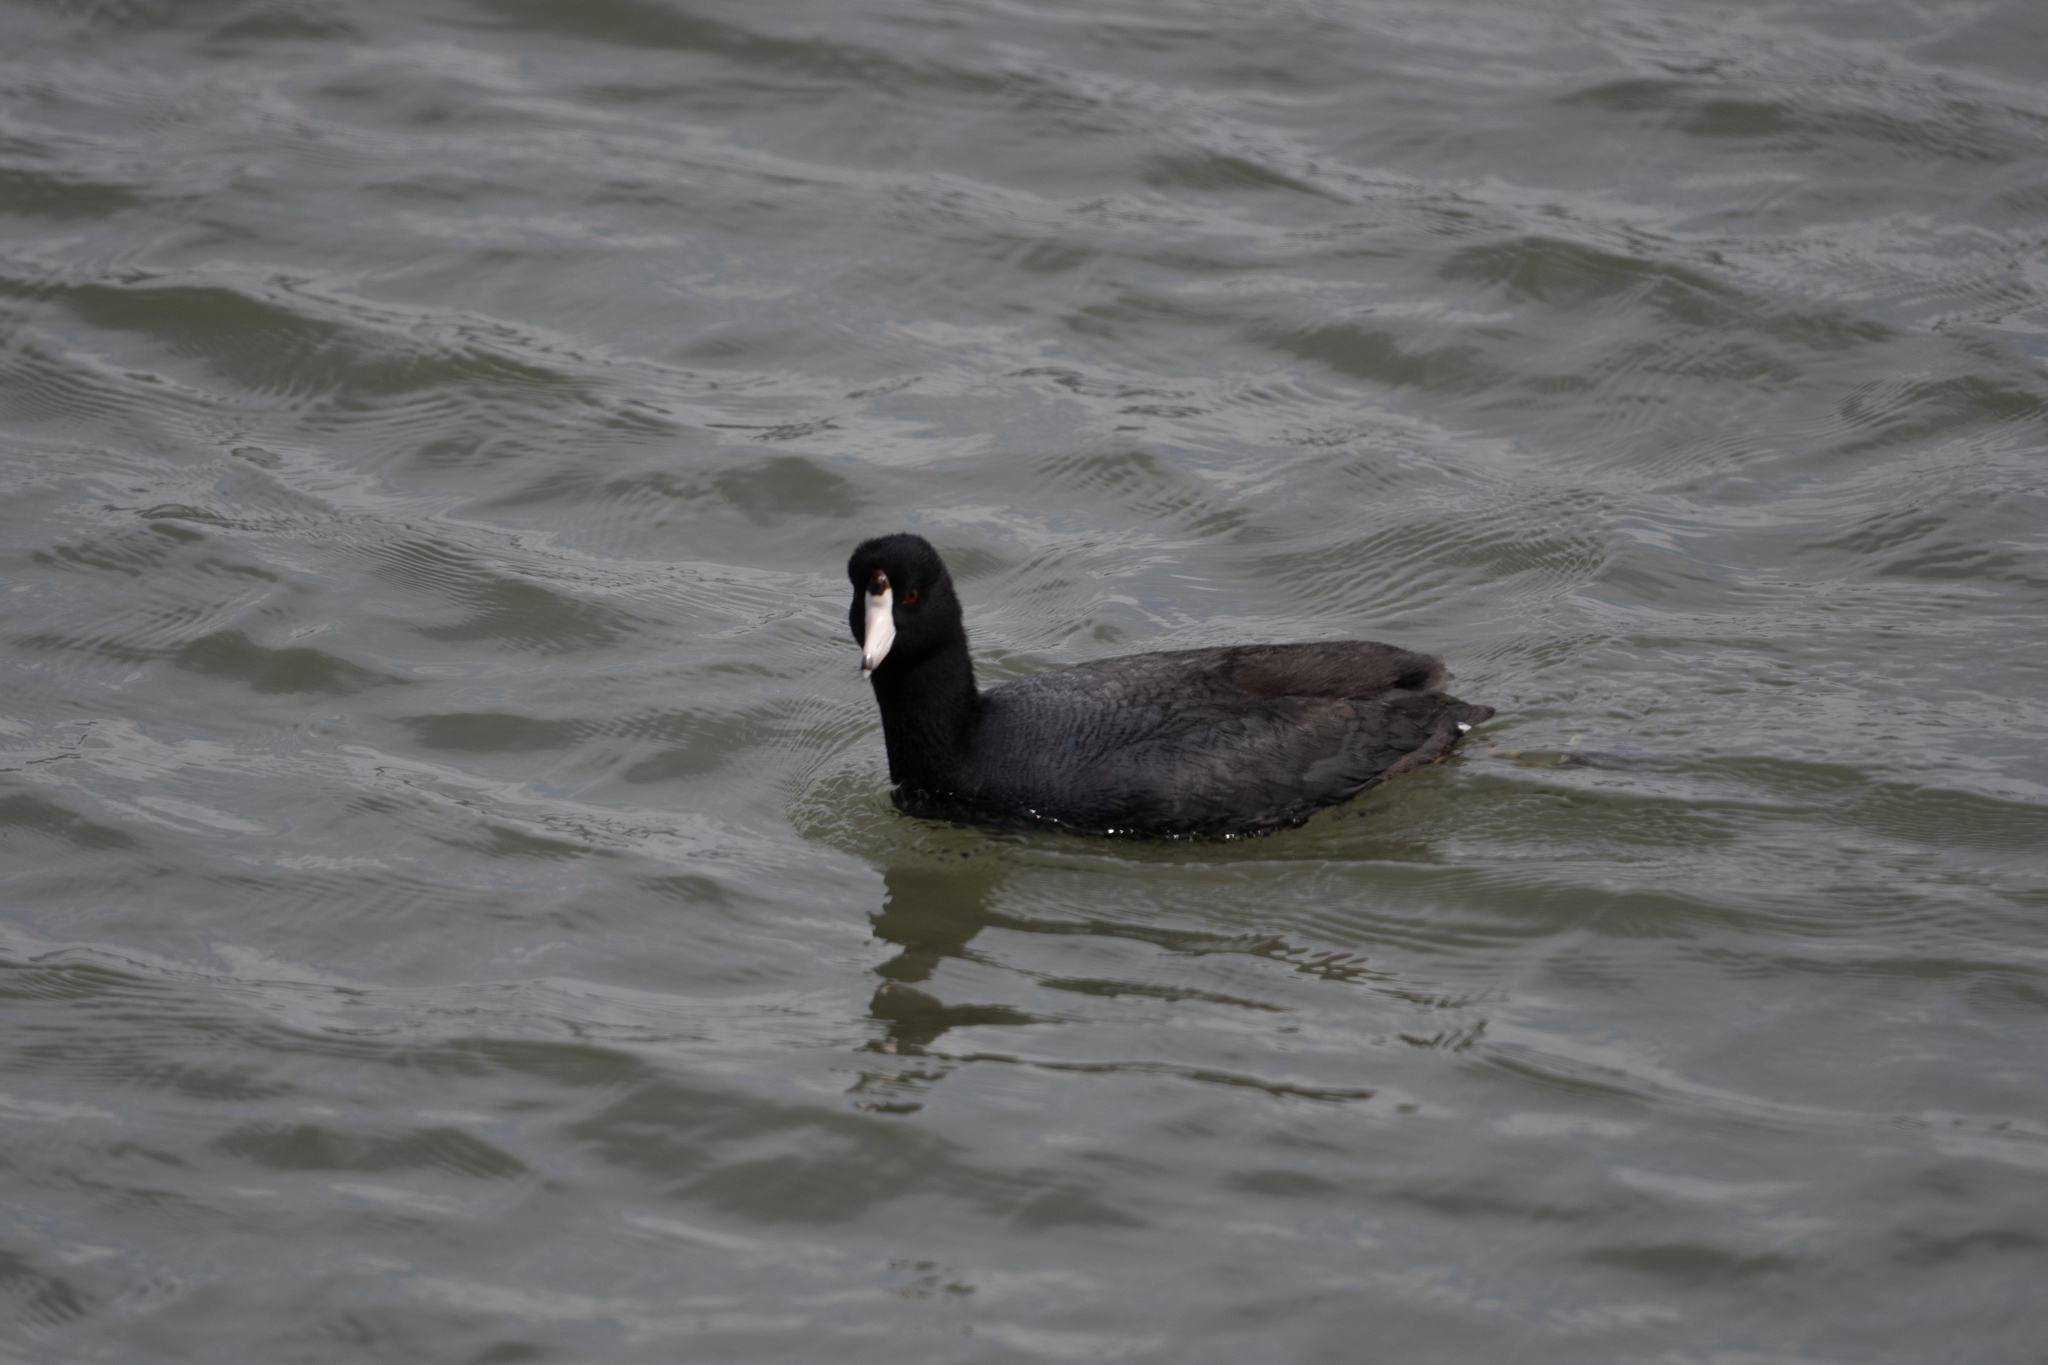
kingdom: Animalia
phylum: Chordata
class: Aves
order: Gruiformes
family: Rallidae
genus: Fulica
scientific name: Fulica americana
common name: American coot
